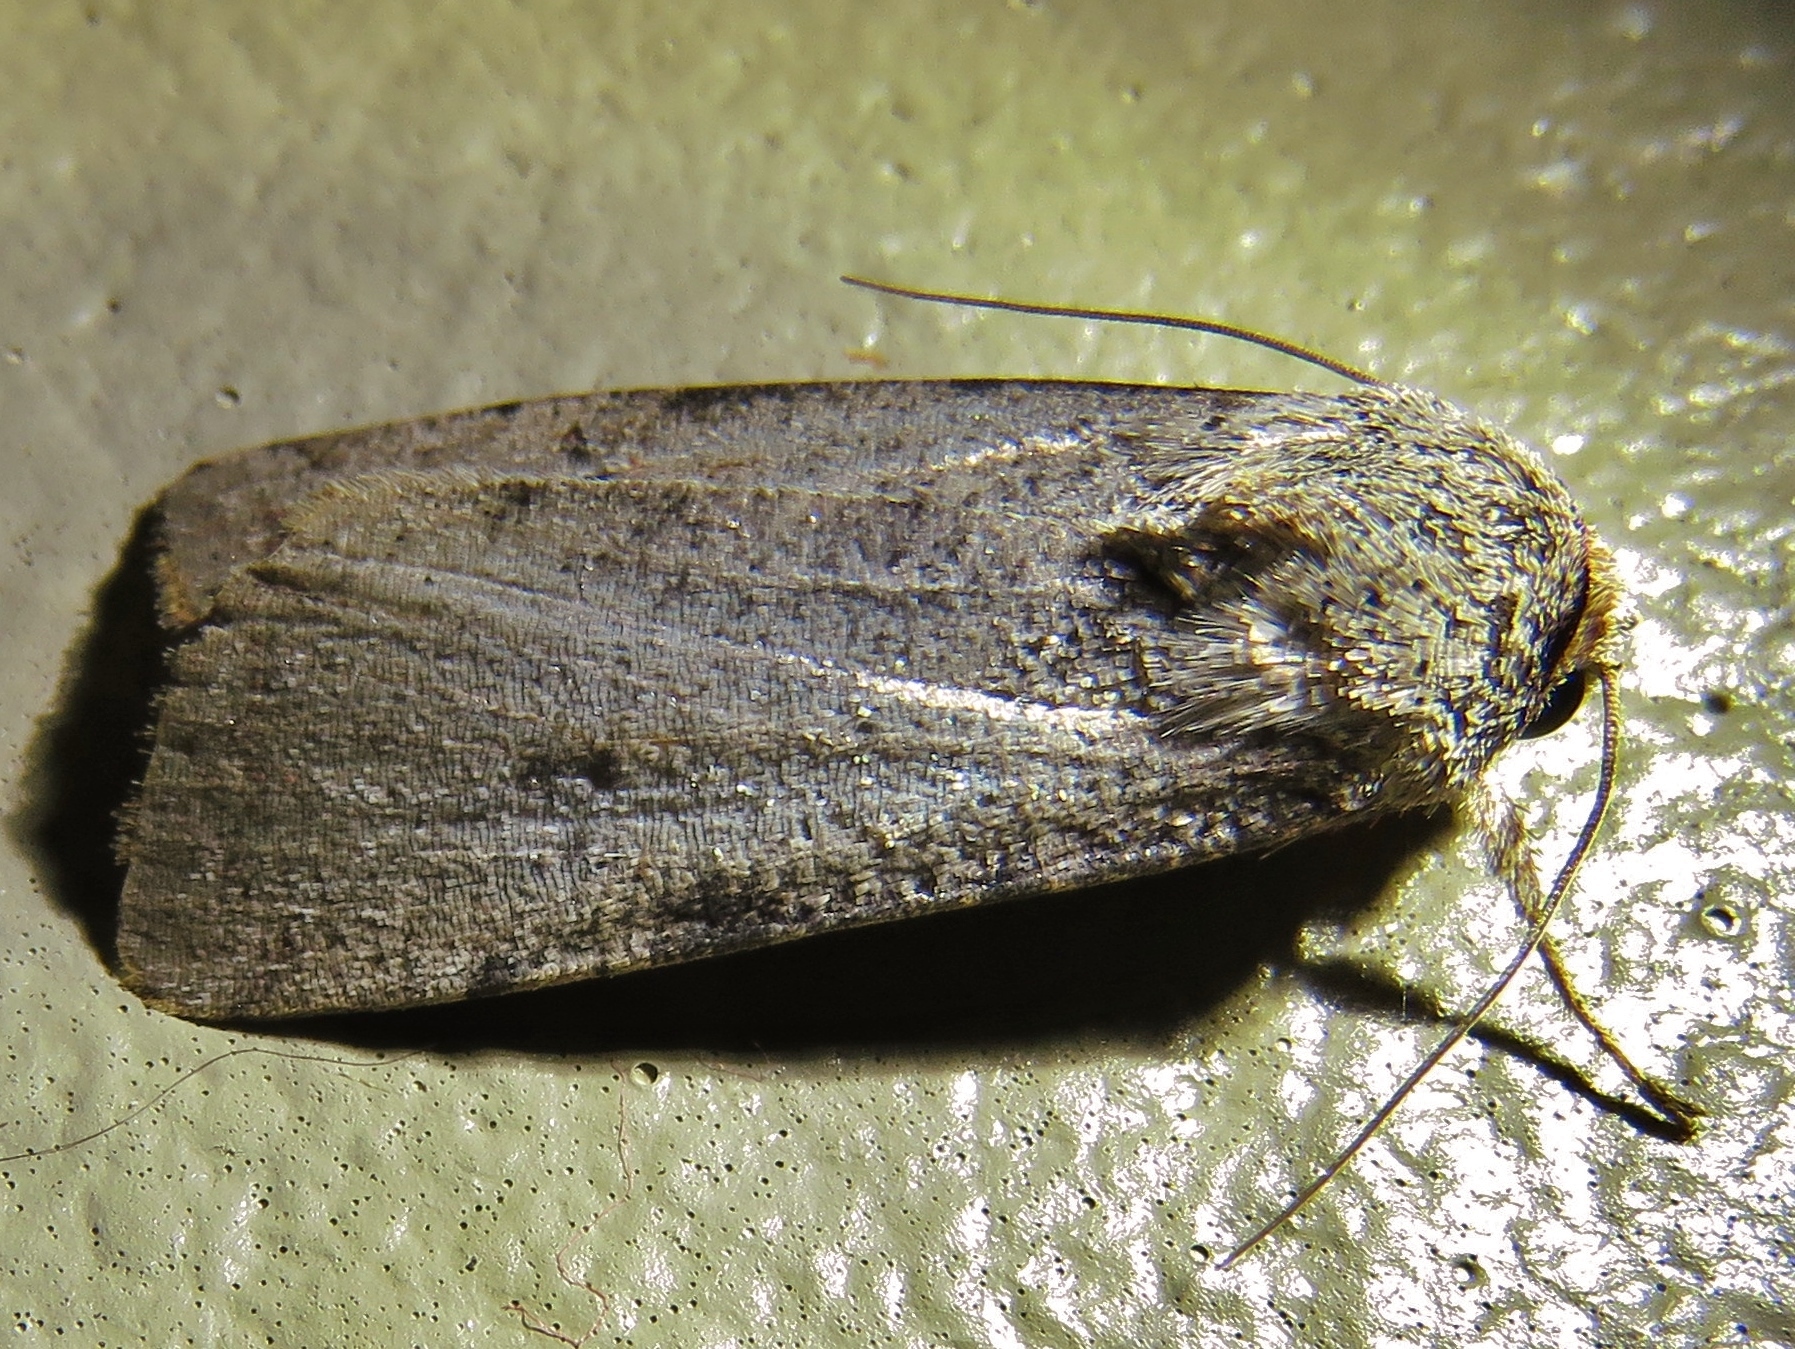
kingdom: Animalia
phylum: Arthropoda
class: Insecta
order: Lepidoptera
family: Noctuidae
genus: Anicla
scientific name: Anicla infecta
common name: Green cutworm
